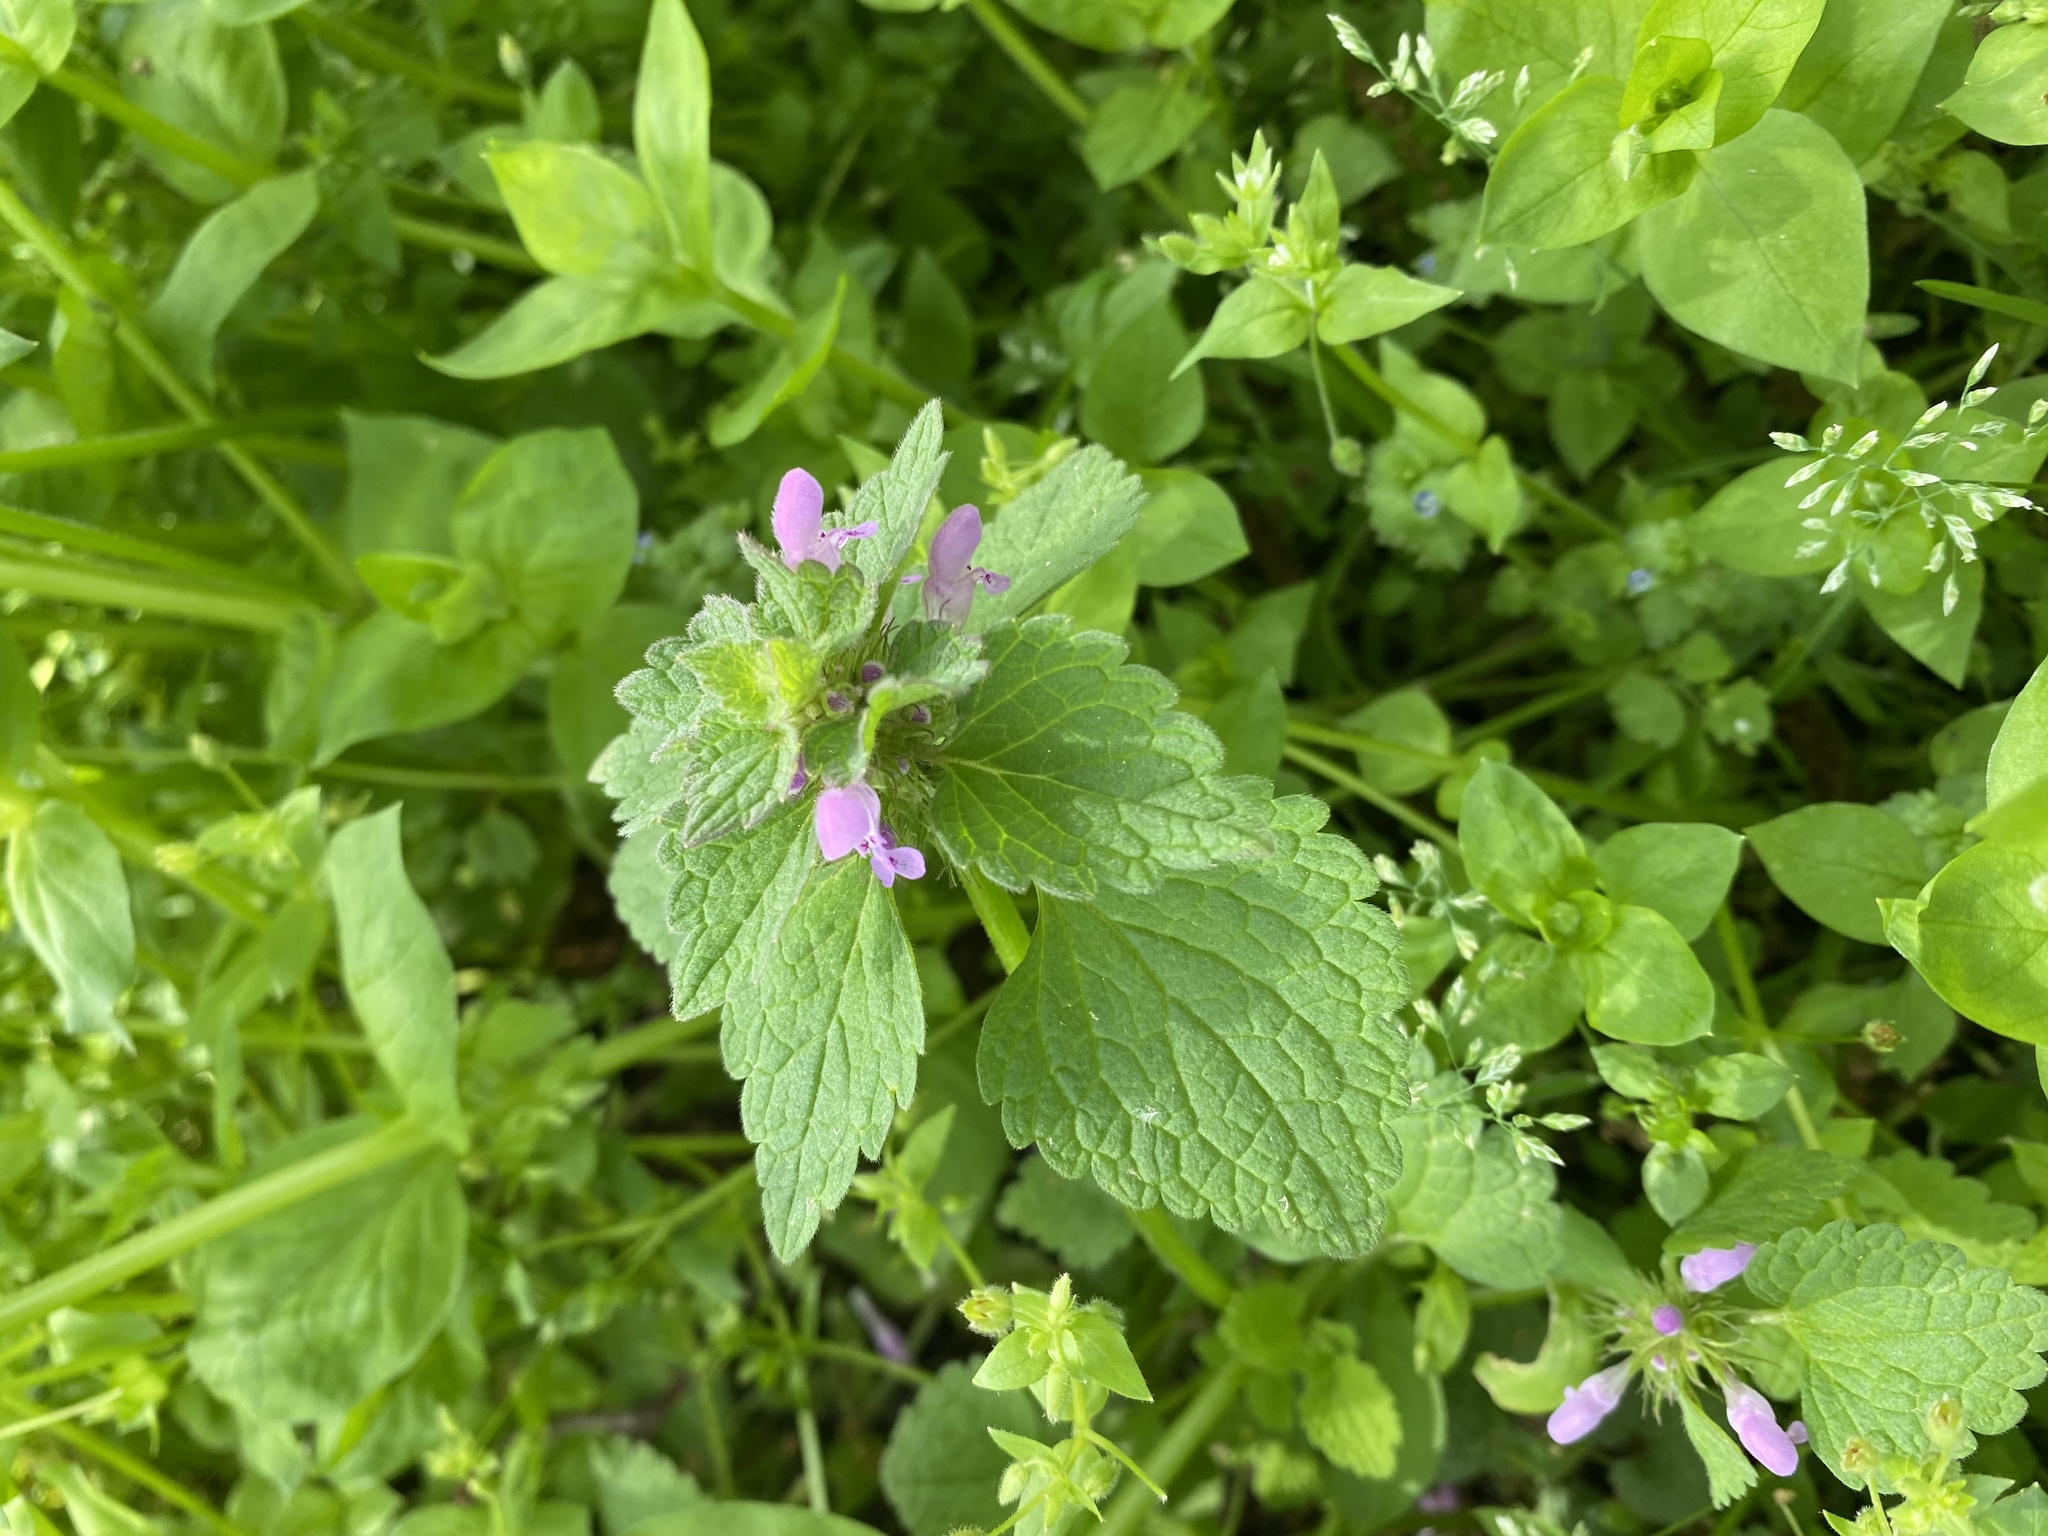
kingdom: Plantae
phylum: Tracheophyta
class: Magnoliopsida
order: Lamiales
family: Lamiaceae
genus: Lamium
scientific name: Lamium purpureum
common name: Red dead-nettle
